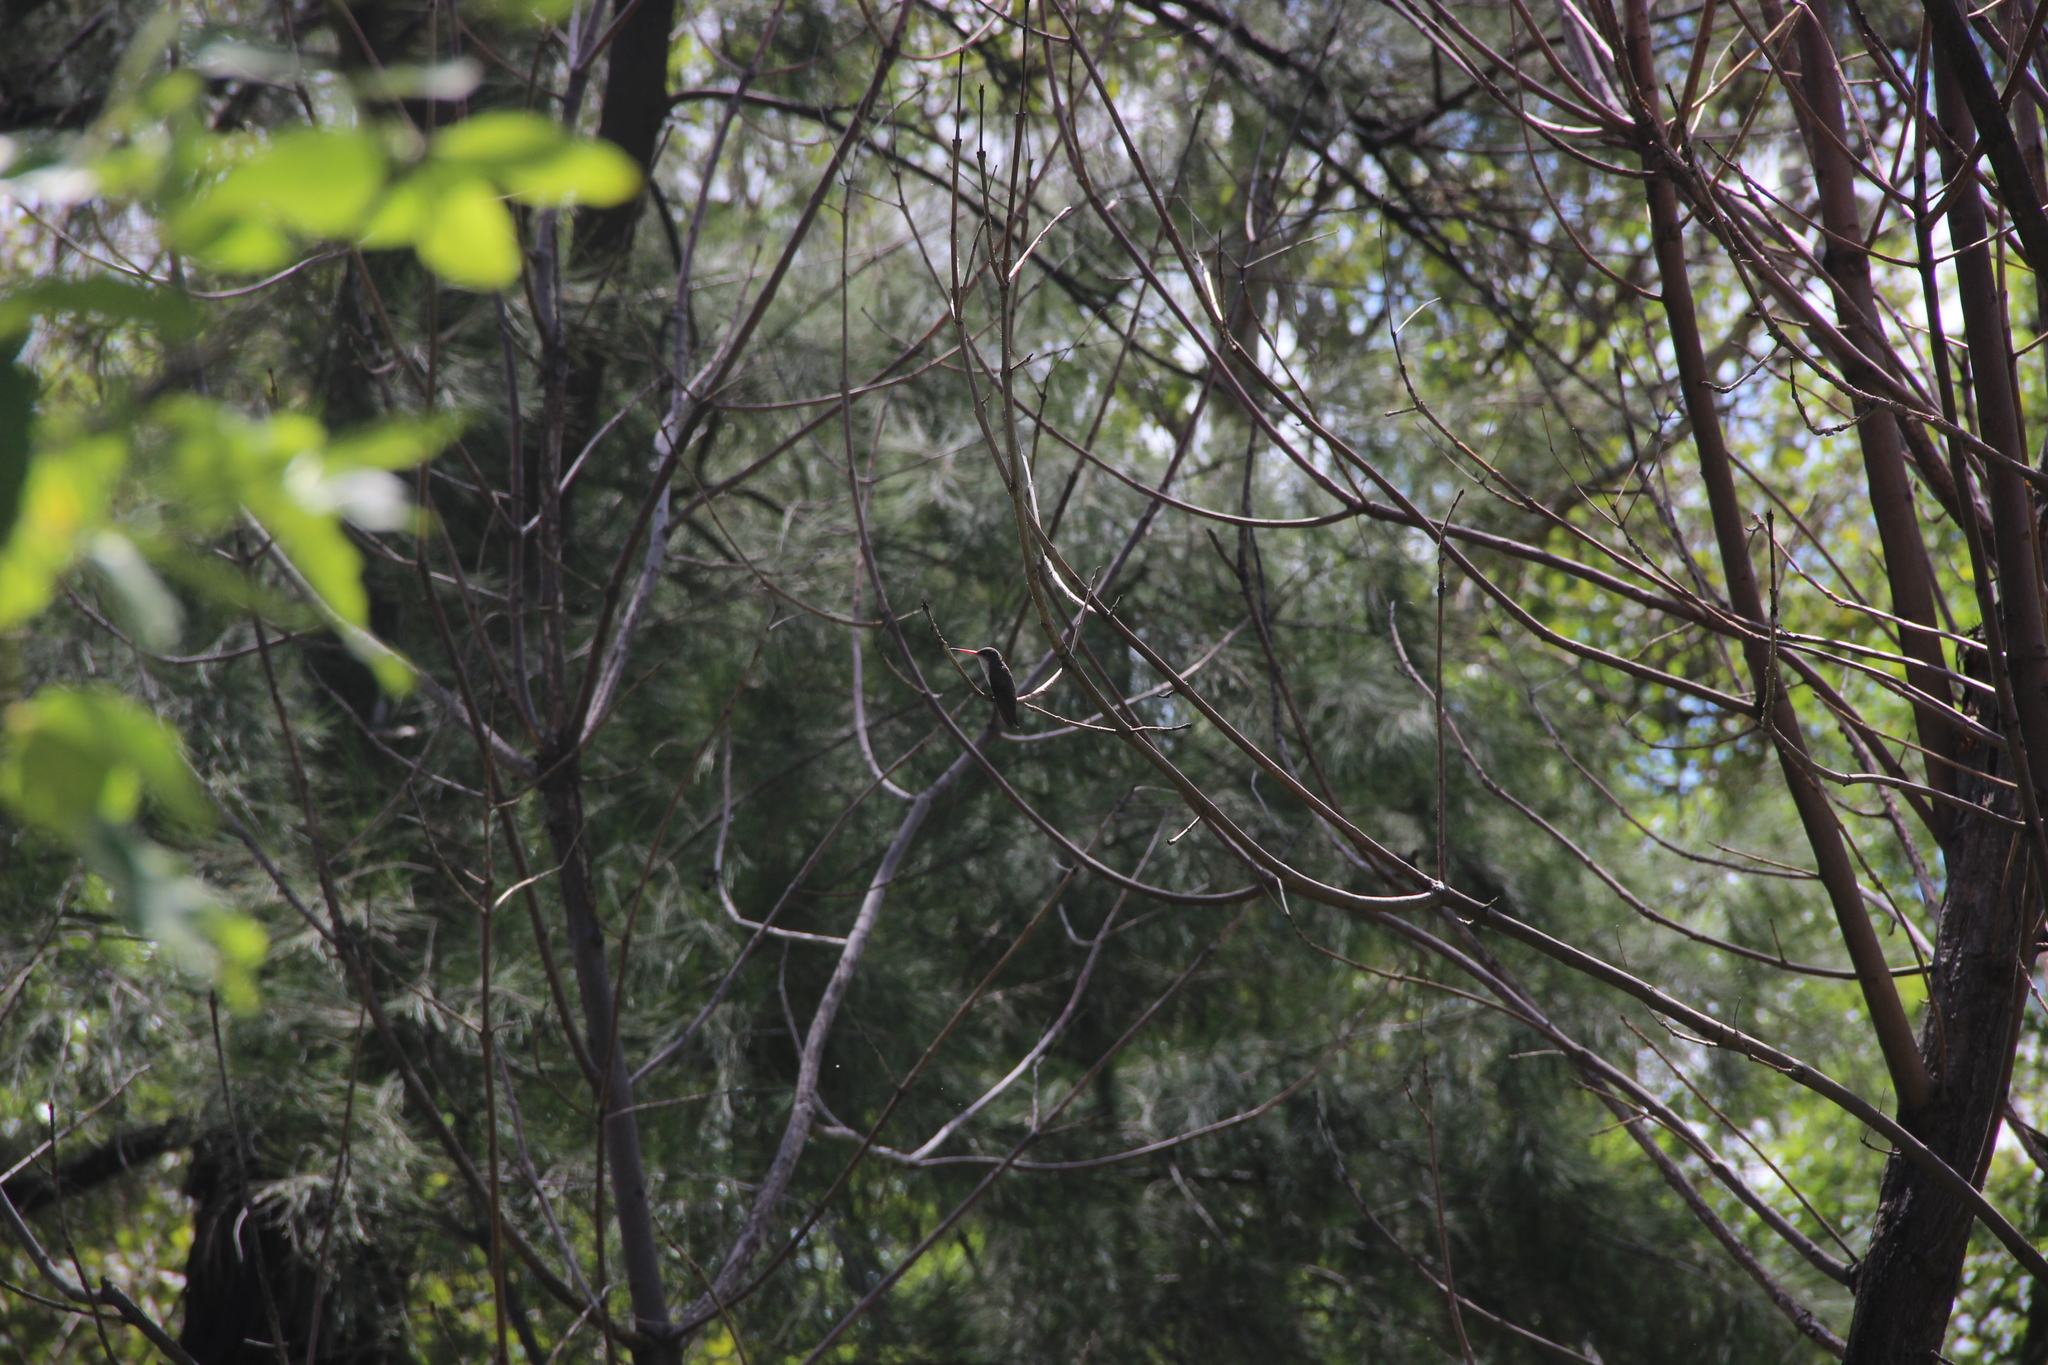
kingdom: Animalia
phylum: Chordata
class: Aves
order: Apodiformes
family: Trochilidae
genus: Leucolia
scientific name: Leucolia violiceps
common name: Violet-crowned hummingbird
